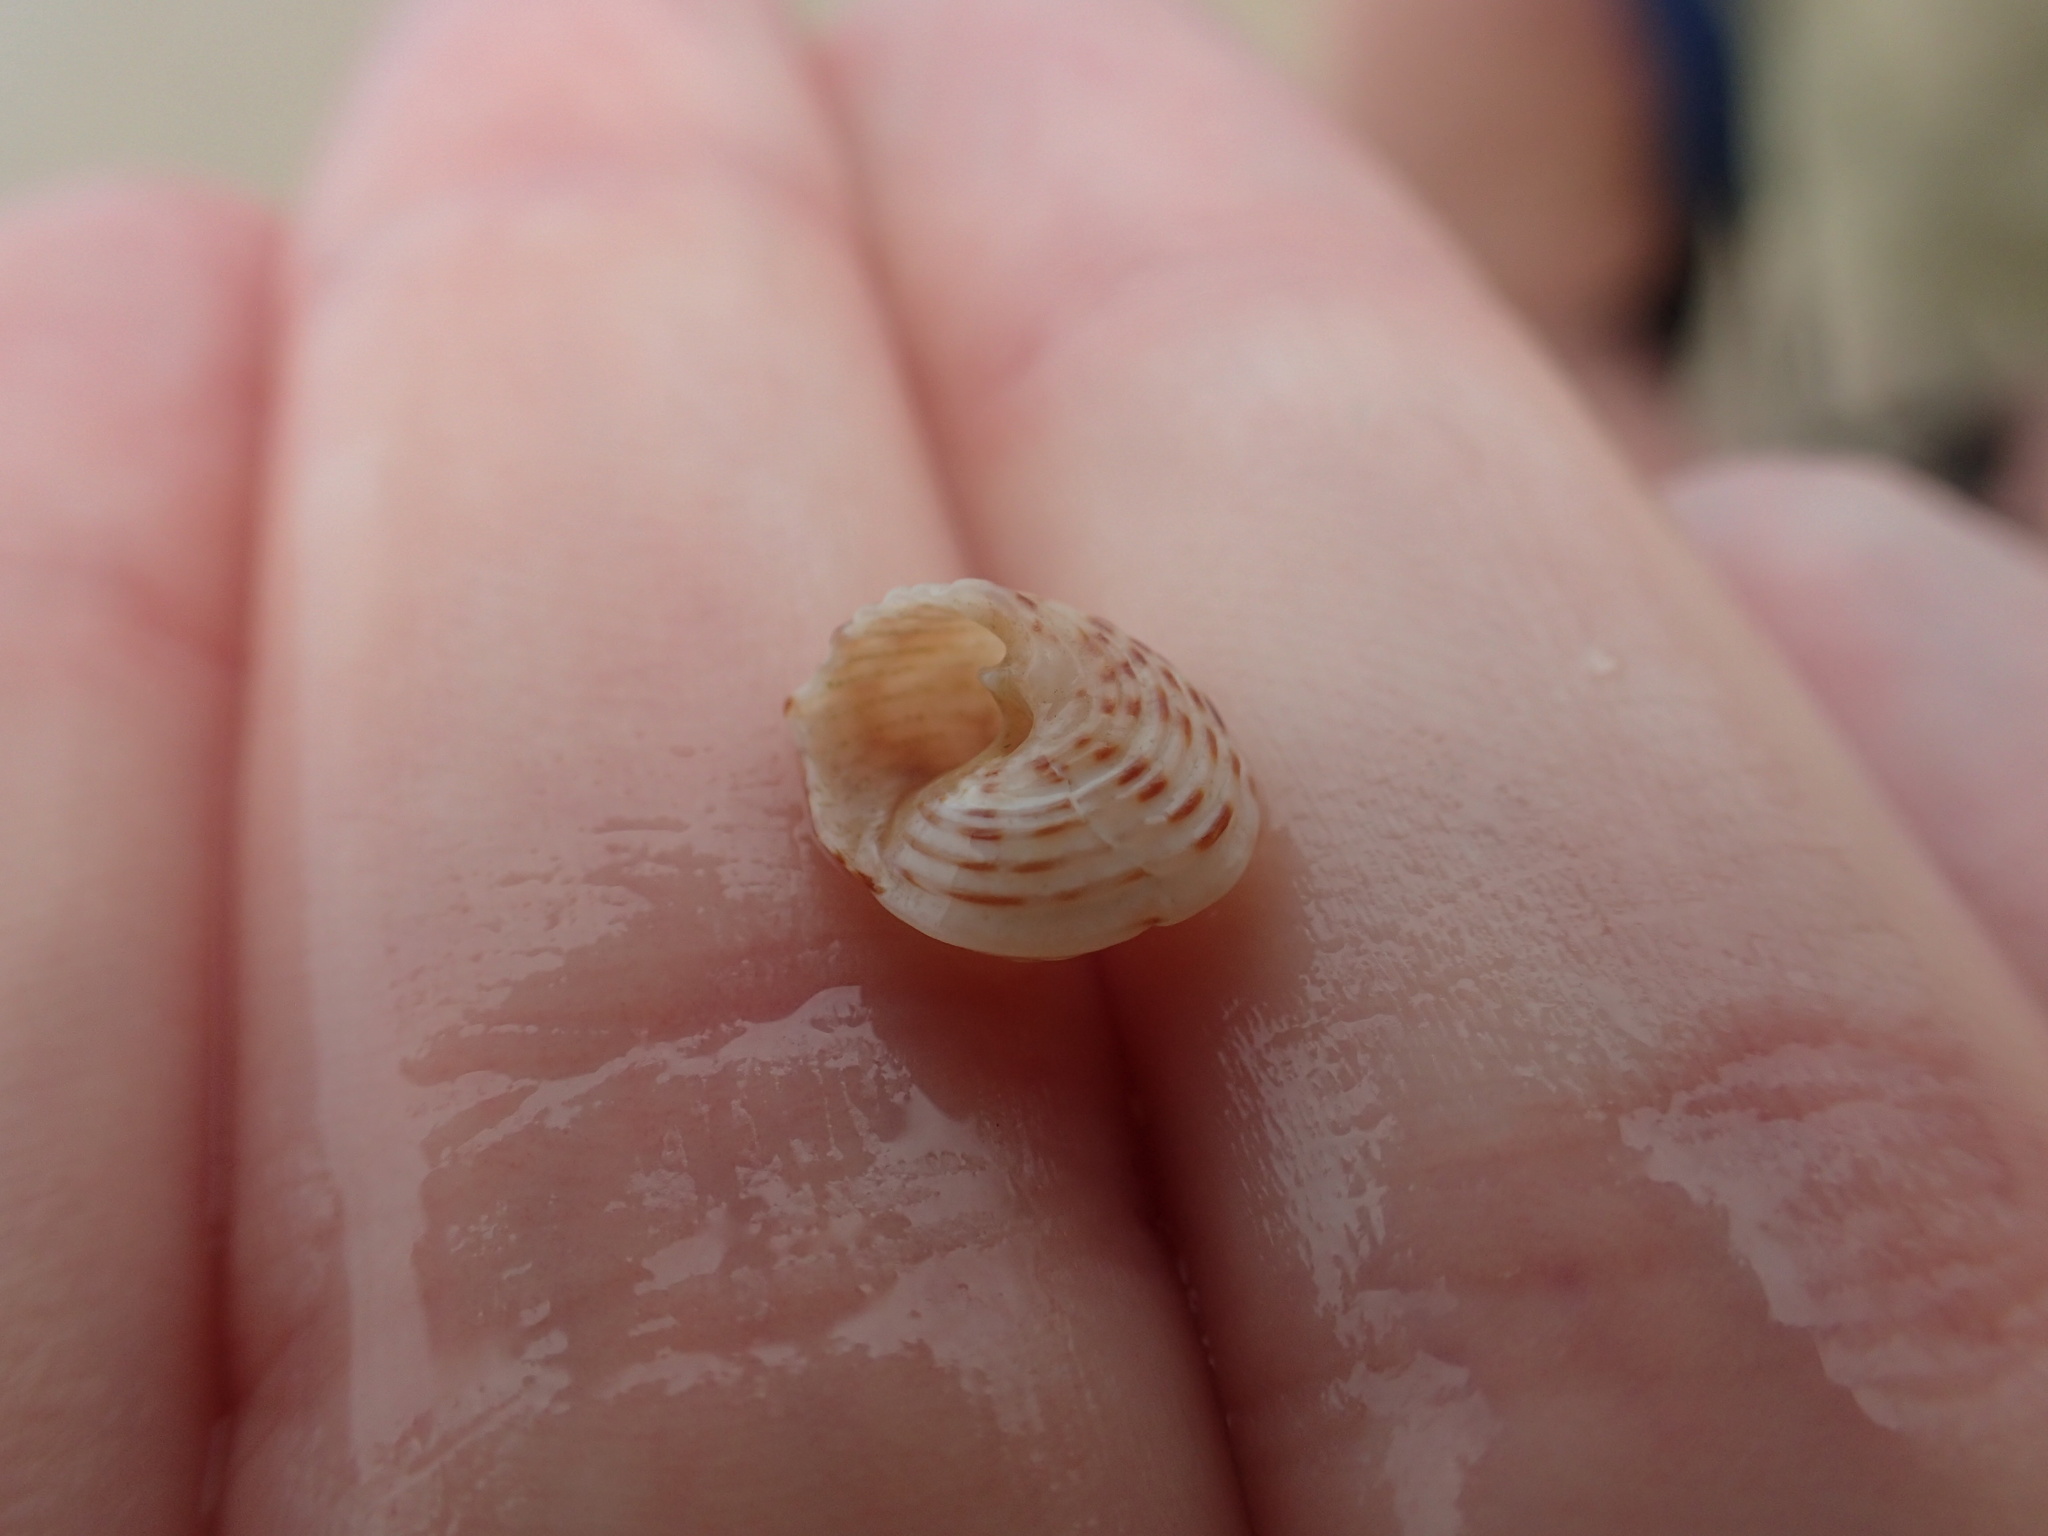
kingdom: Animalia
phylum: Mollusca
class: Gastropoda
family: Modulidae
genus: Modulus
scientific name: Modulus modulus
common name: Atlantic modulus
